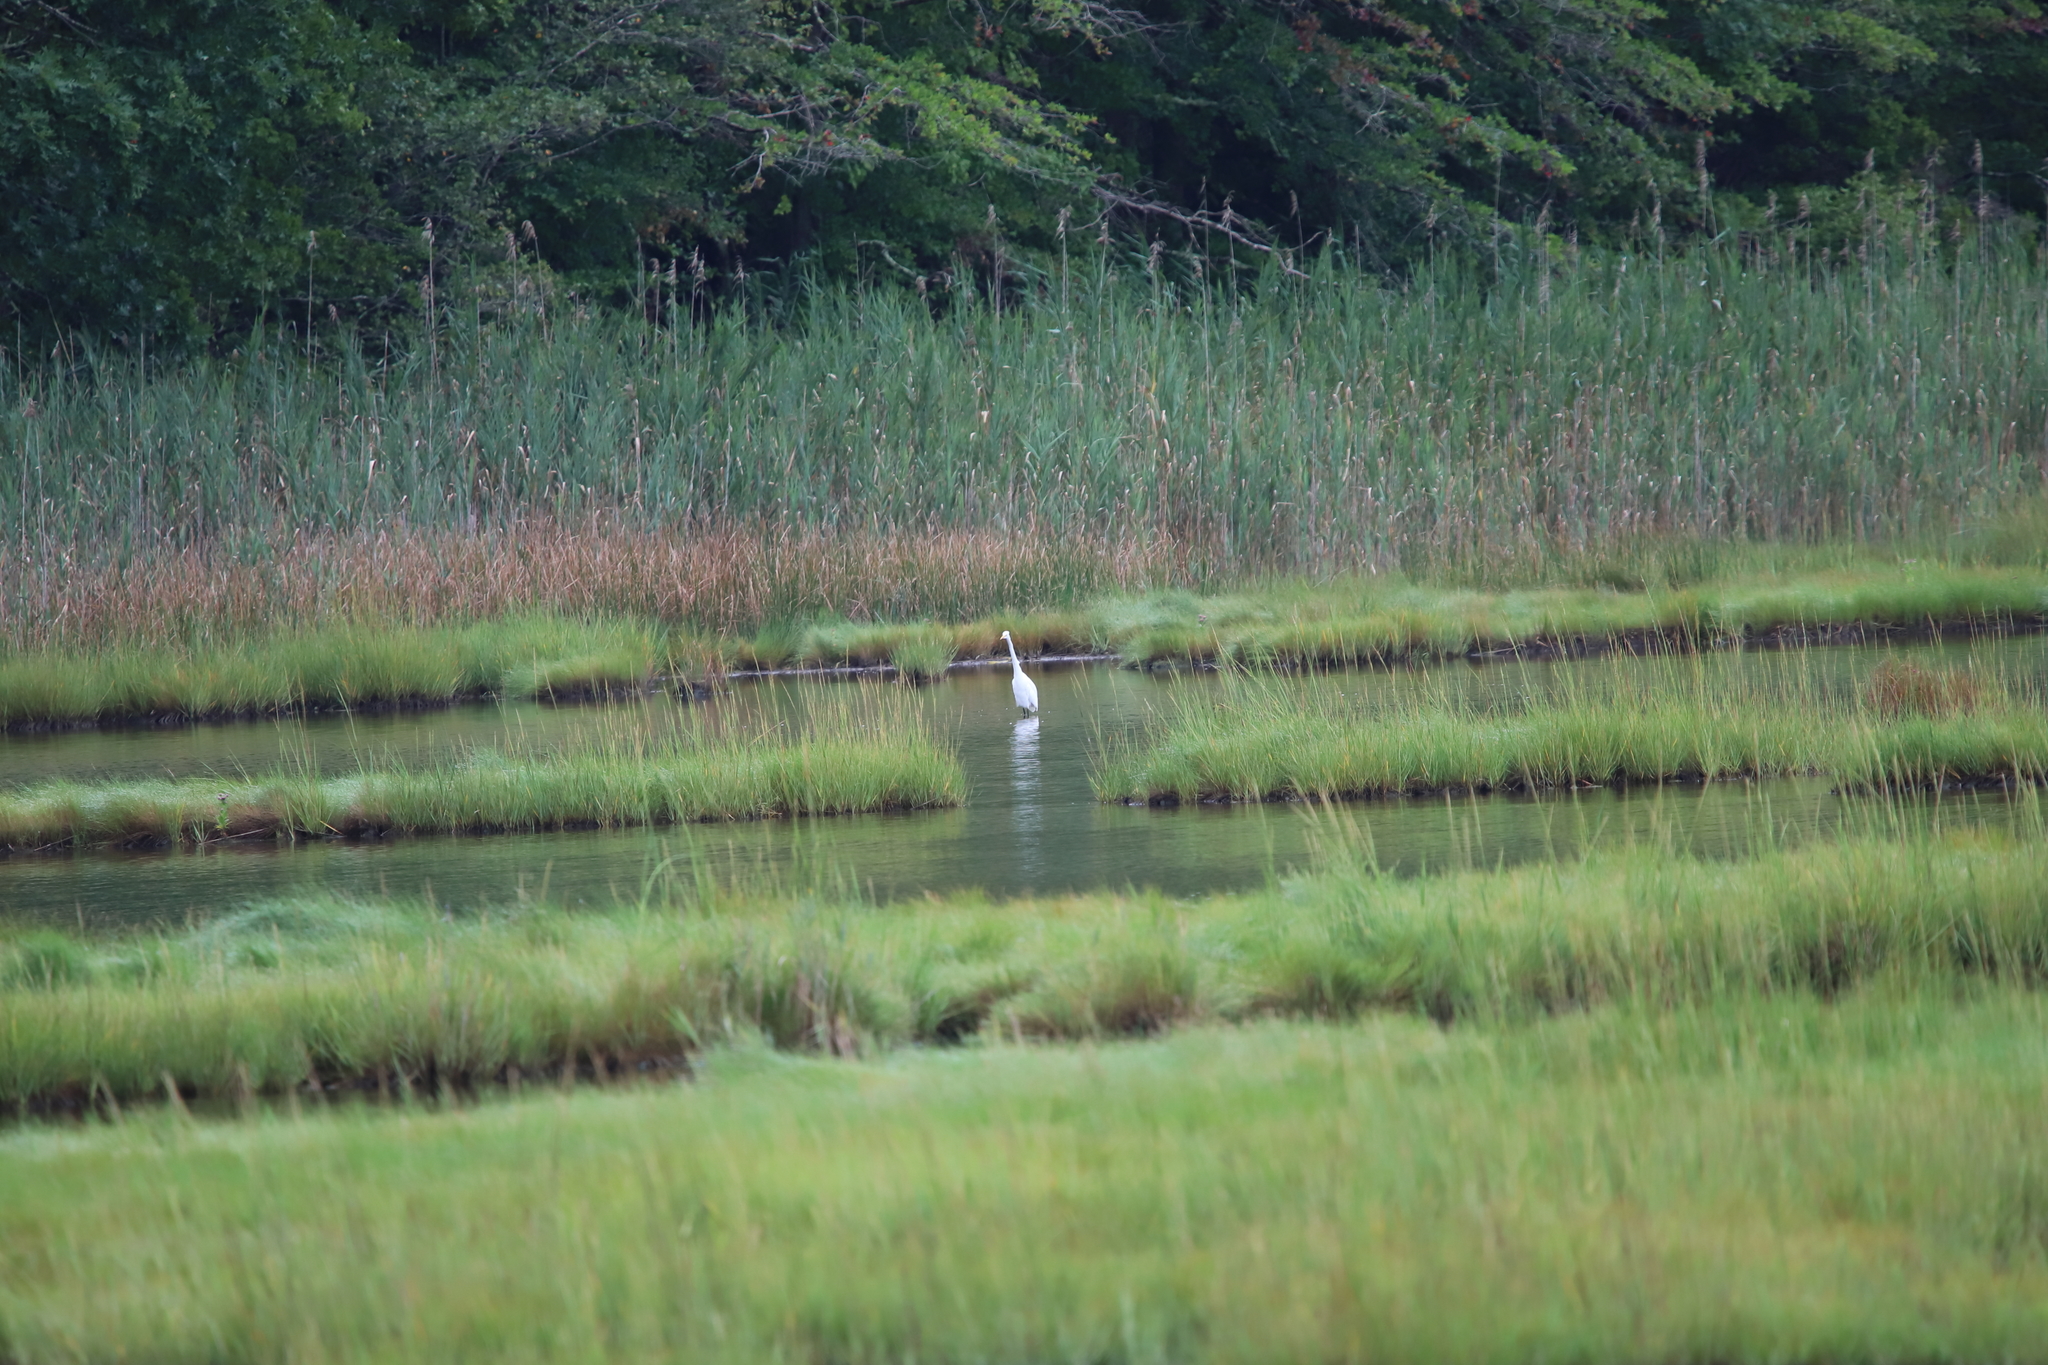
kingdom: Animalia
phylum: Chordata
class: Aves
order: Pelecaniformes
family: Ardeidae
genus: Ardea
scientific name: Ardea alba
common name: Great egret
